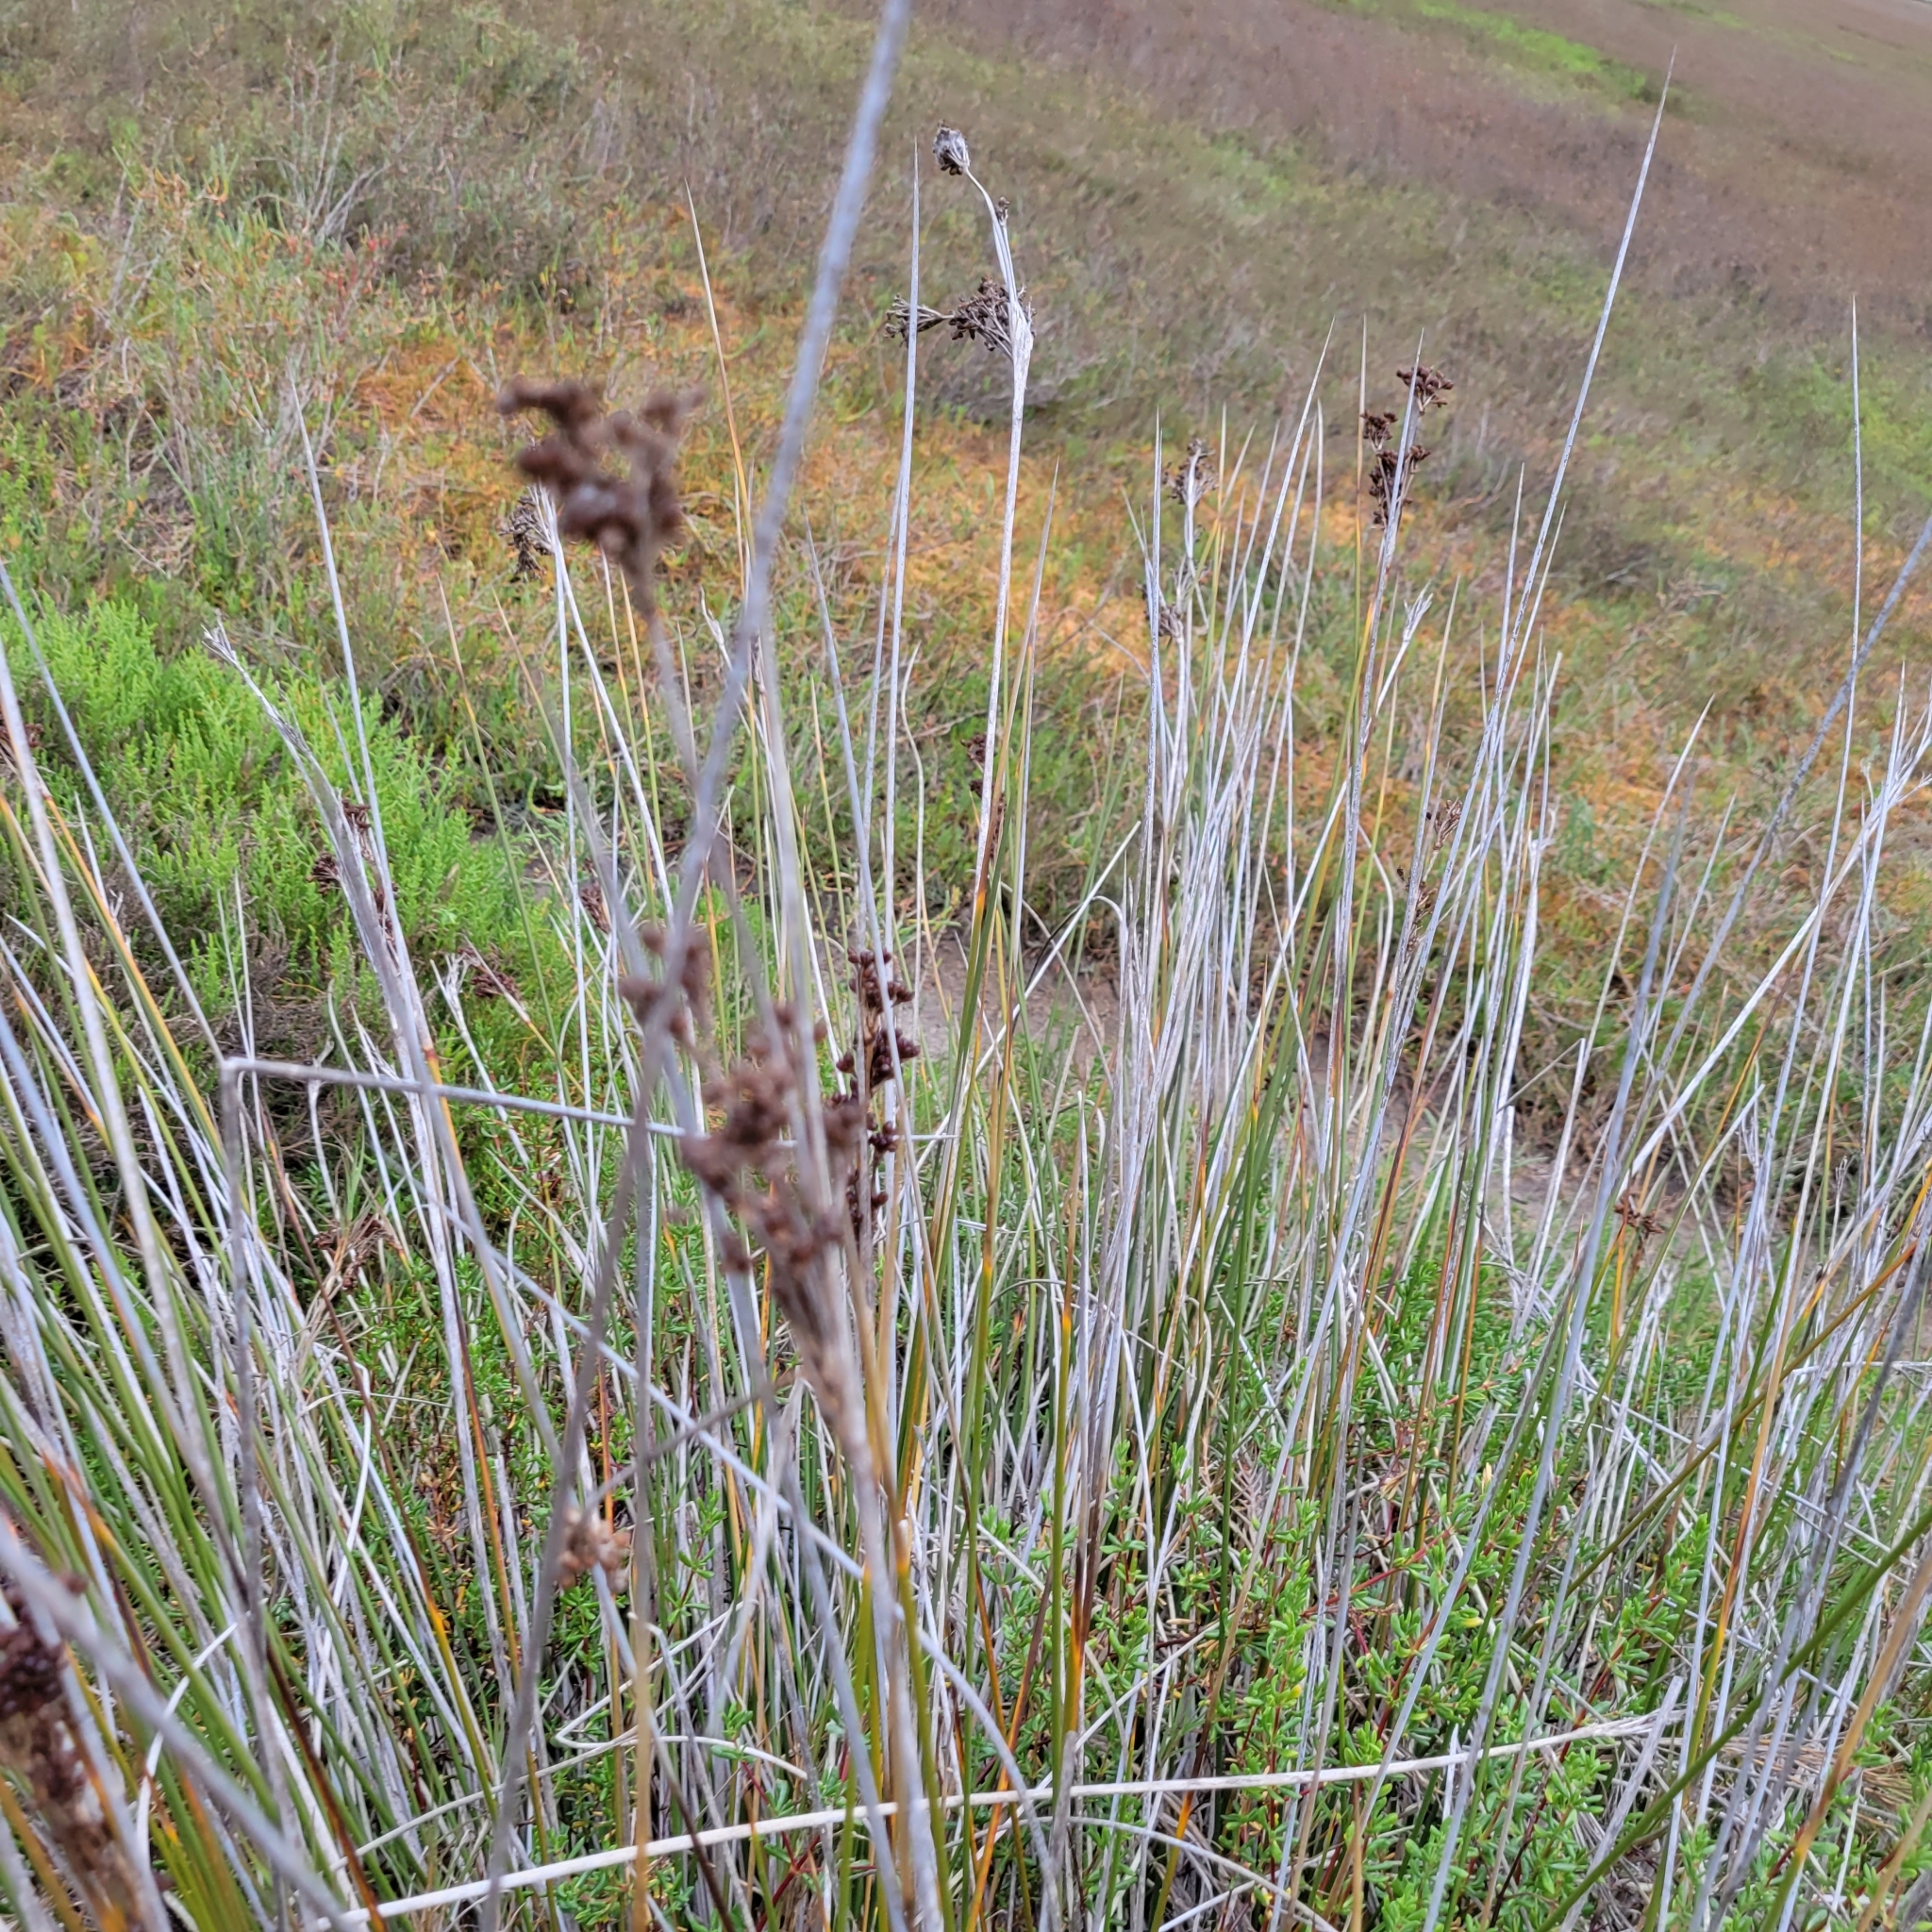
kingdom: Plantae
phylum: Tracheophyta
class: Liliopsida
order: Poales
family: Juncaceae
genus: Juncus
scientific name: Juncus acutus
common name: Sharp rush
